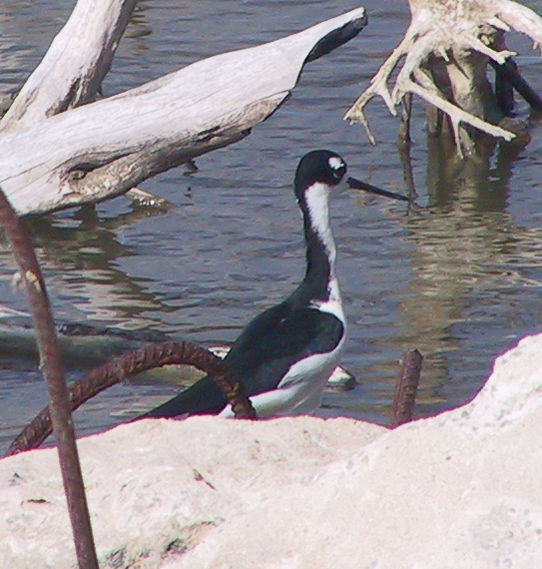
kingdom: Animalia
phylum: Chordata
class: Aves
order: Charadriiformes
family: Recurvirostridae
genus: Himantopus
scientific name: Himantopus mexicanus
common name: Black-necked stilt
